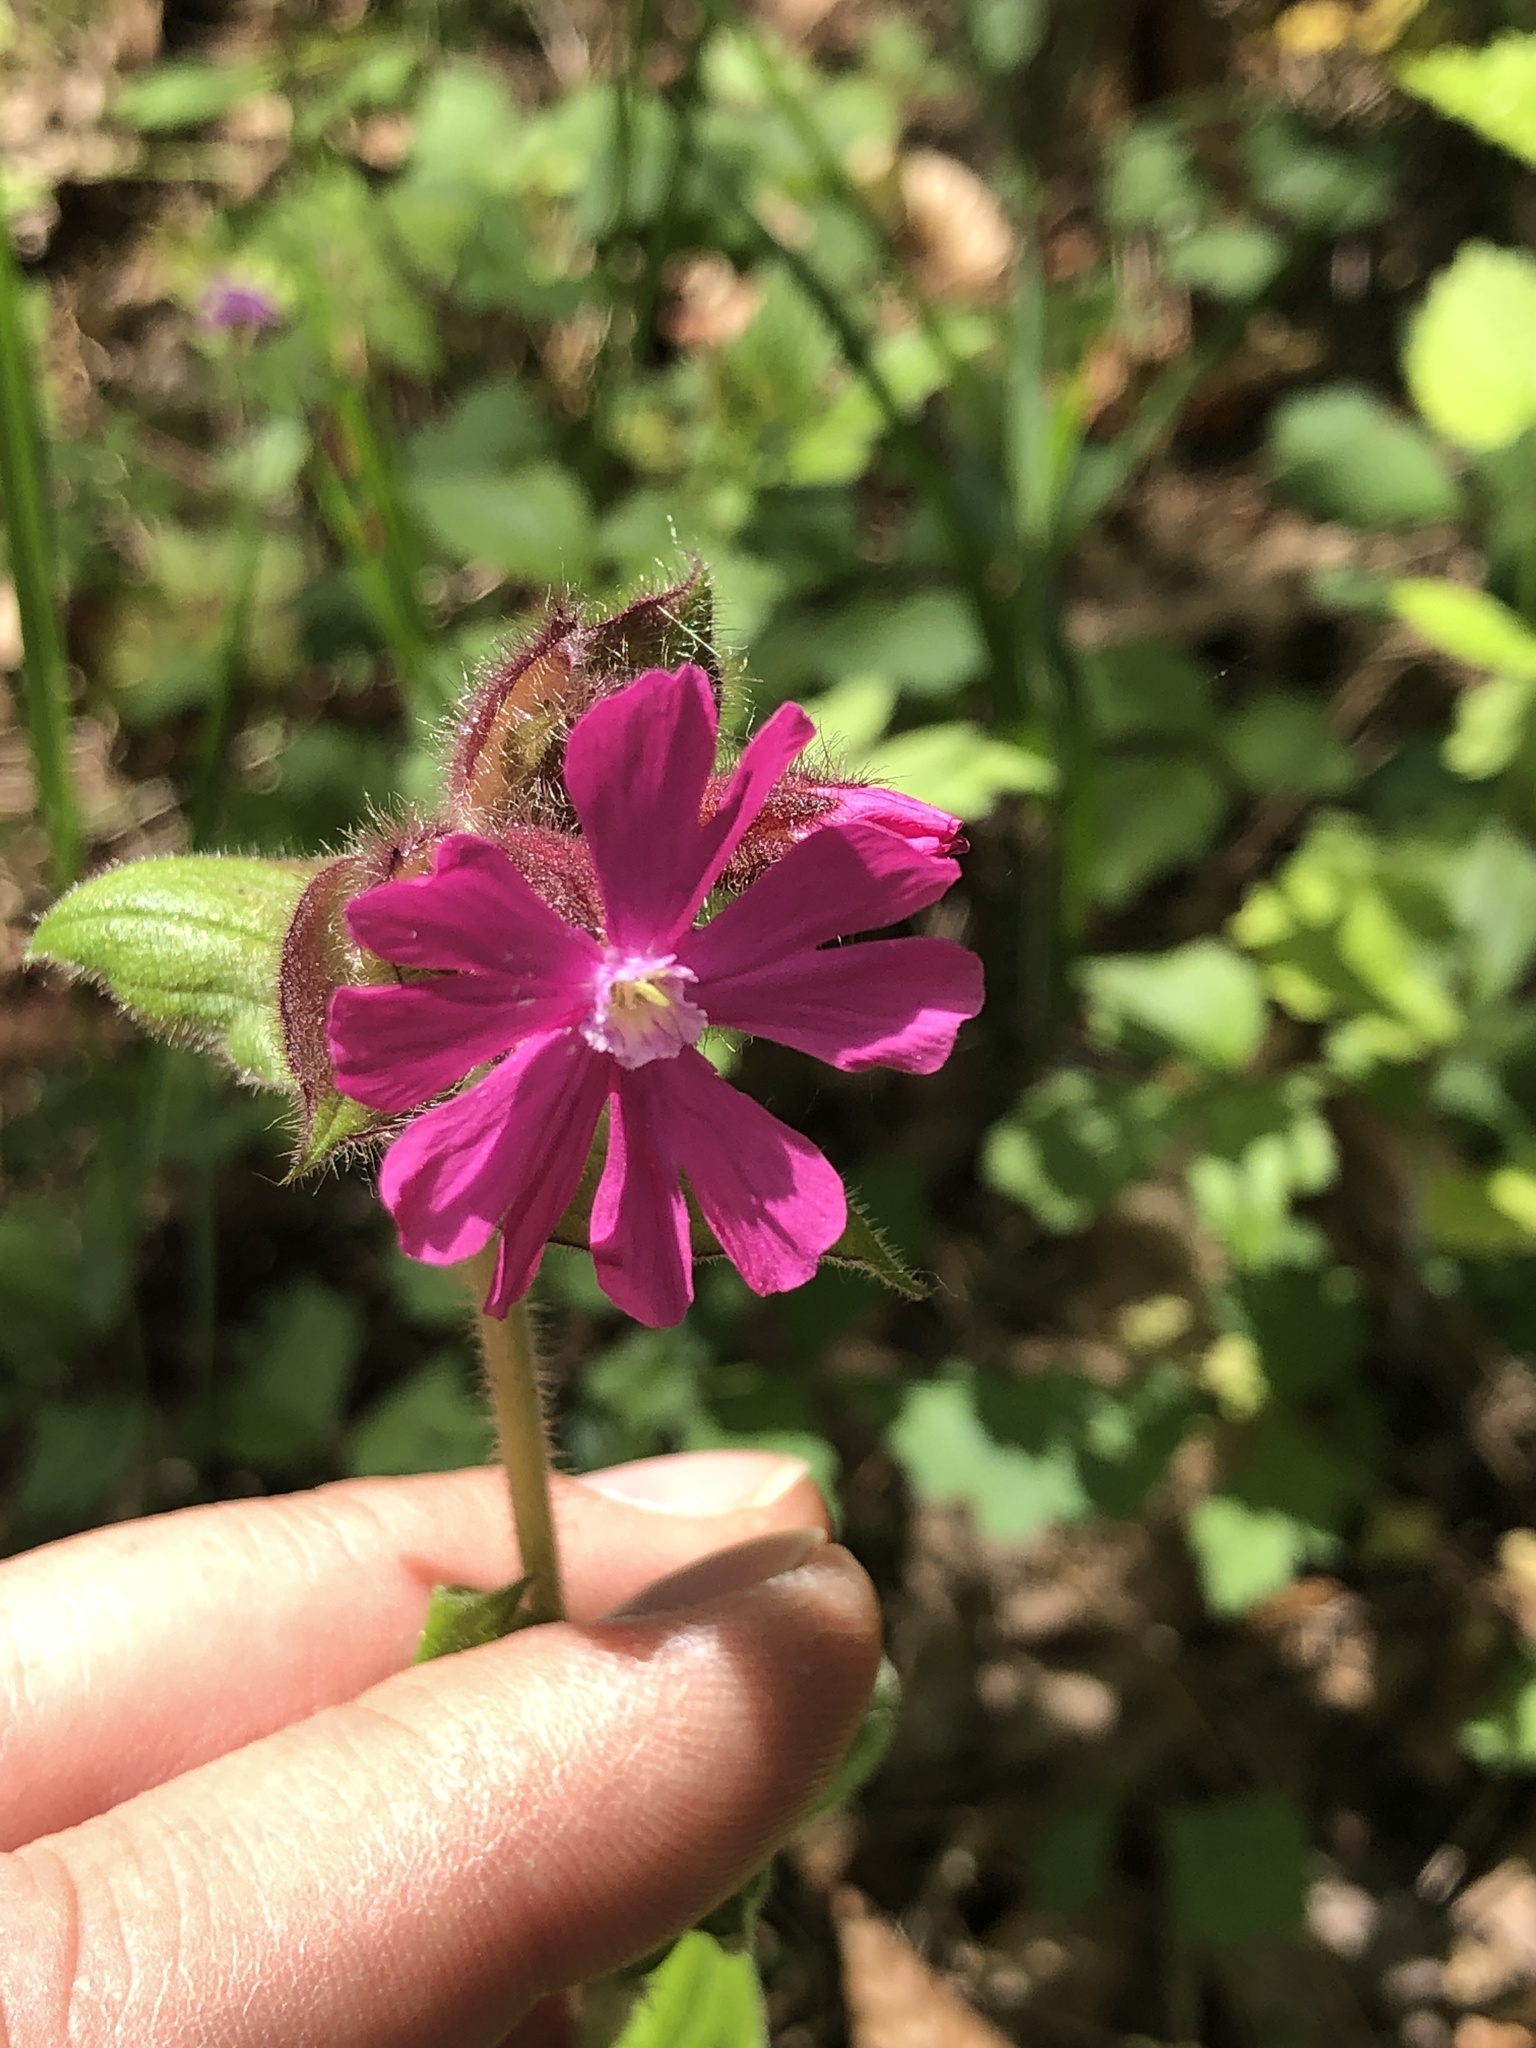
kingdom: Plantae
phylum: Tracheophyta
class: Magnoliopsida
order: Caryophyllales
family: Caryophyllaceae
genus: Silene
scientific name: Silene dioica
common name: Red campion
